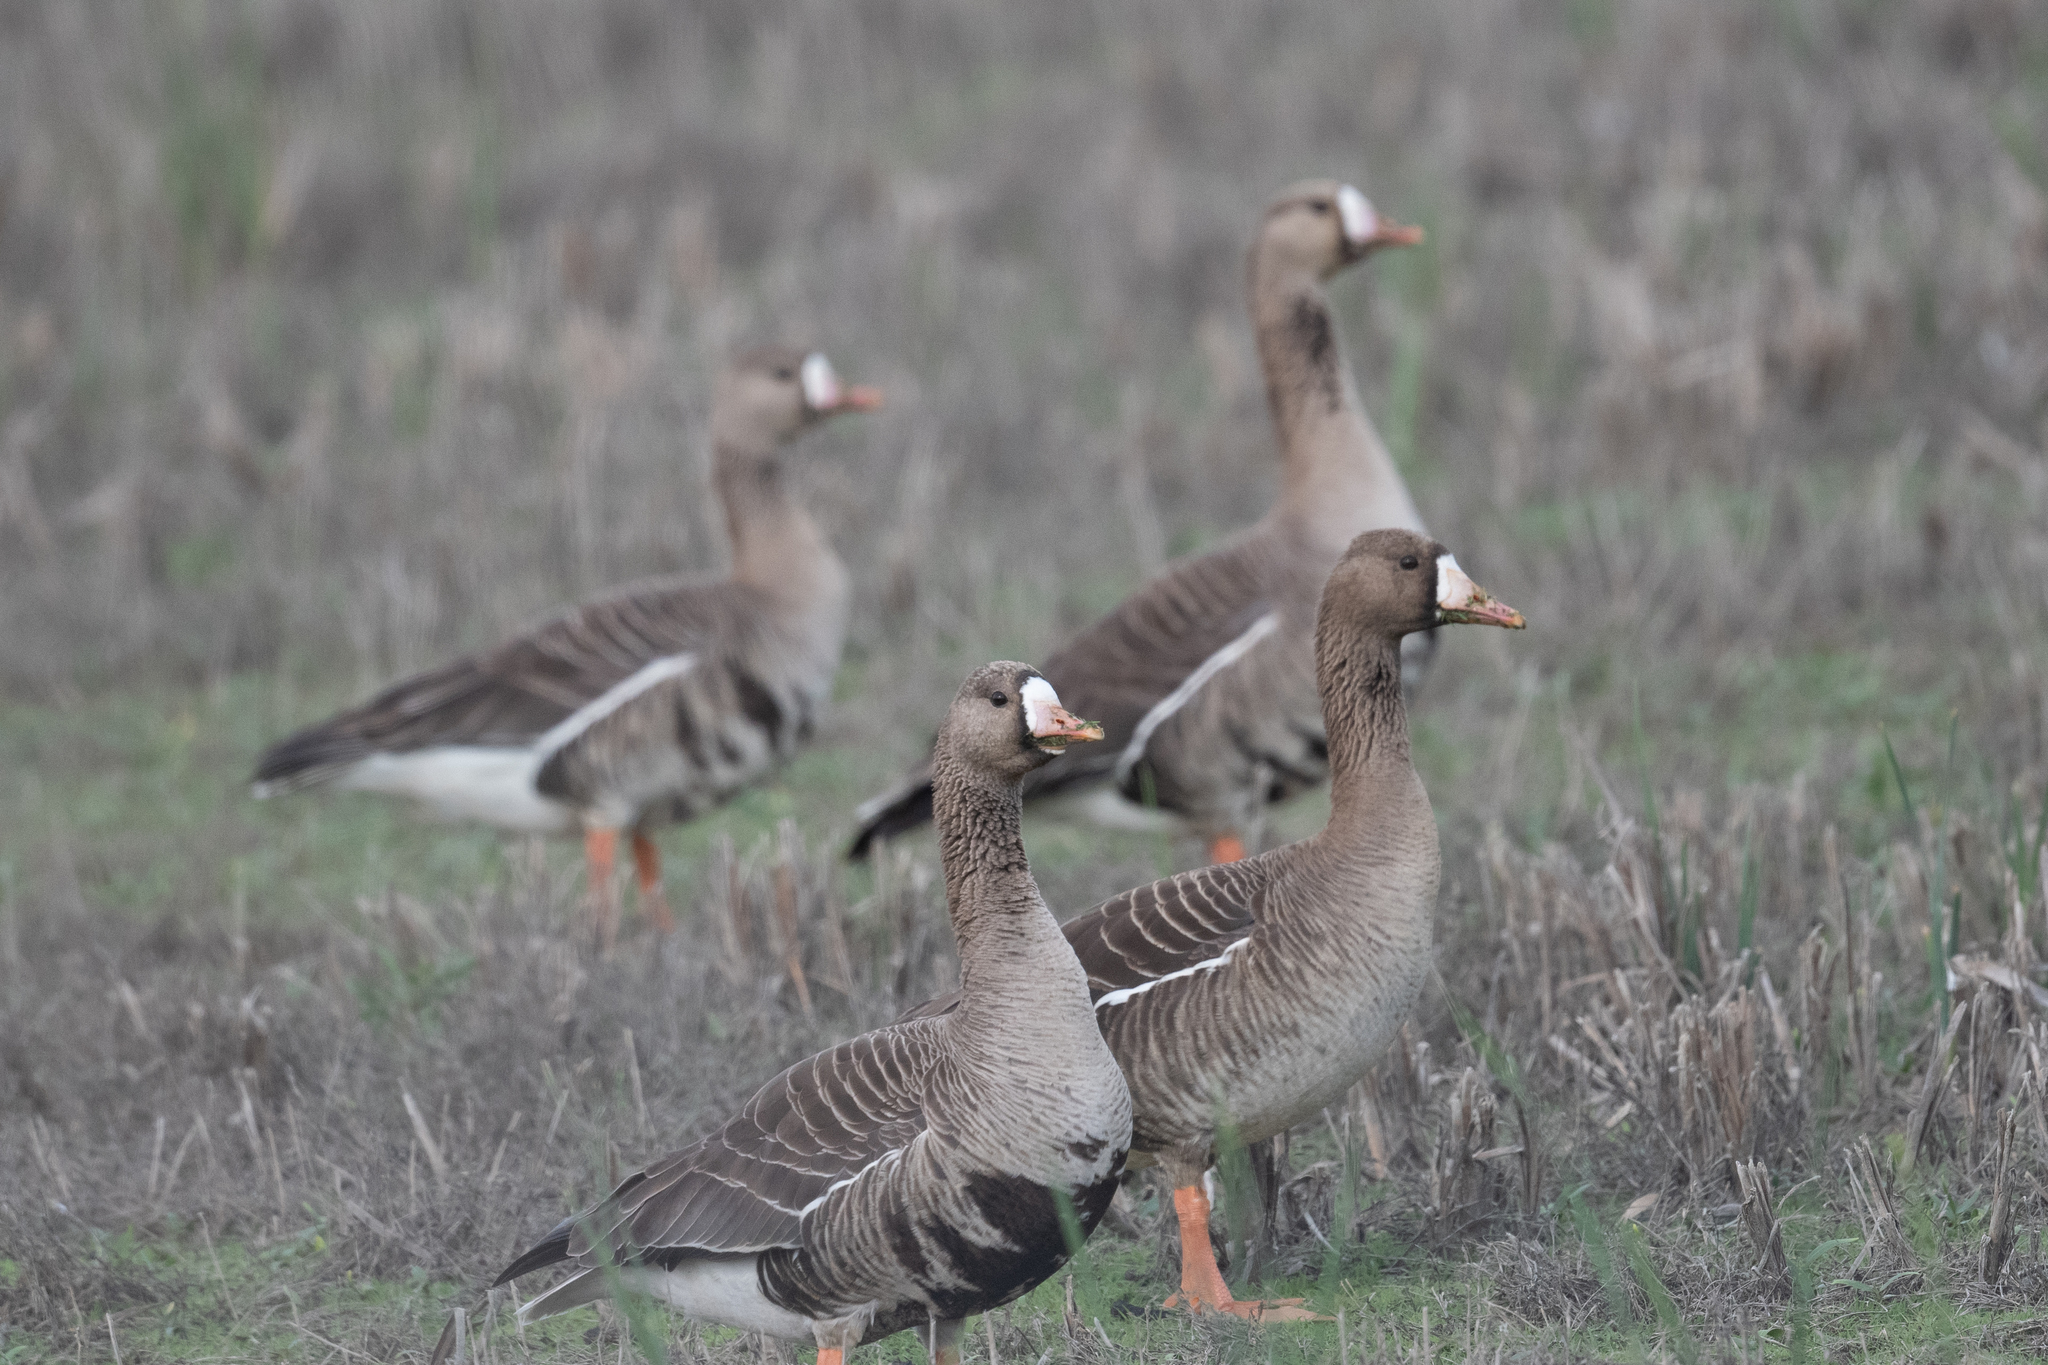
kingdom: Animalia
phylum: Chordata
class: Aves
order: Anseriformes
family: Anatidae
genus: Anser
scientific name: Anser albifrons
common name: Greater white-fronted goose
